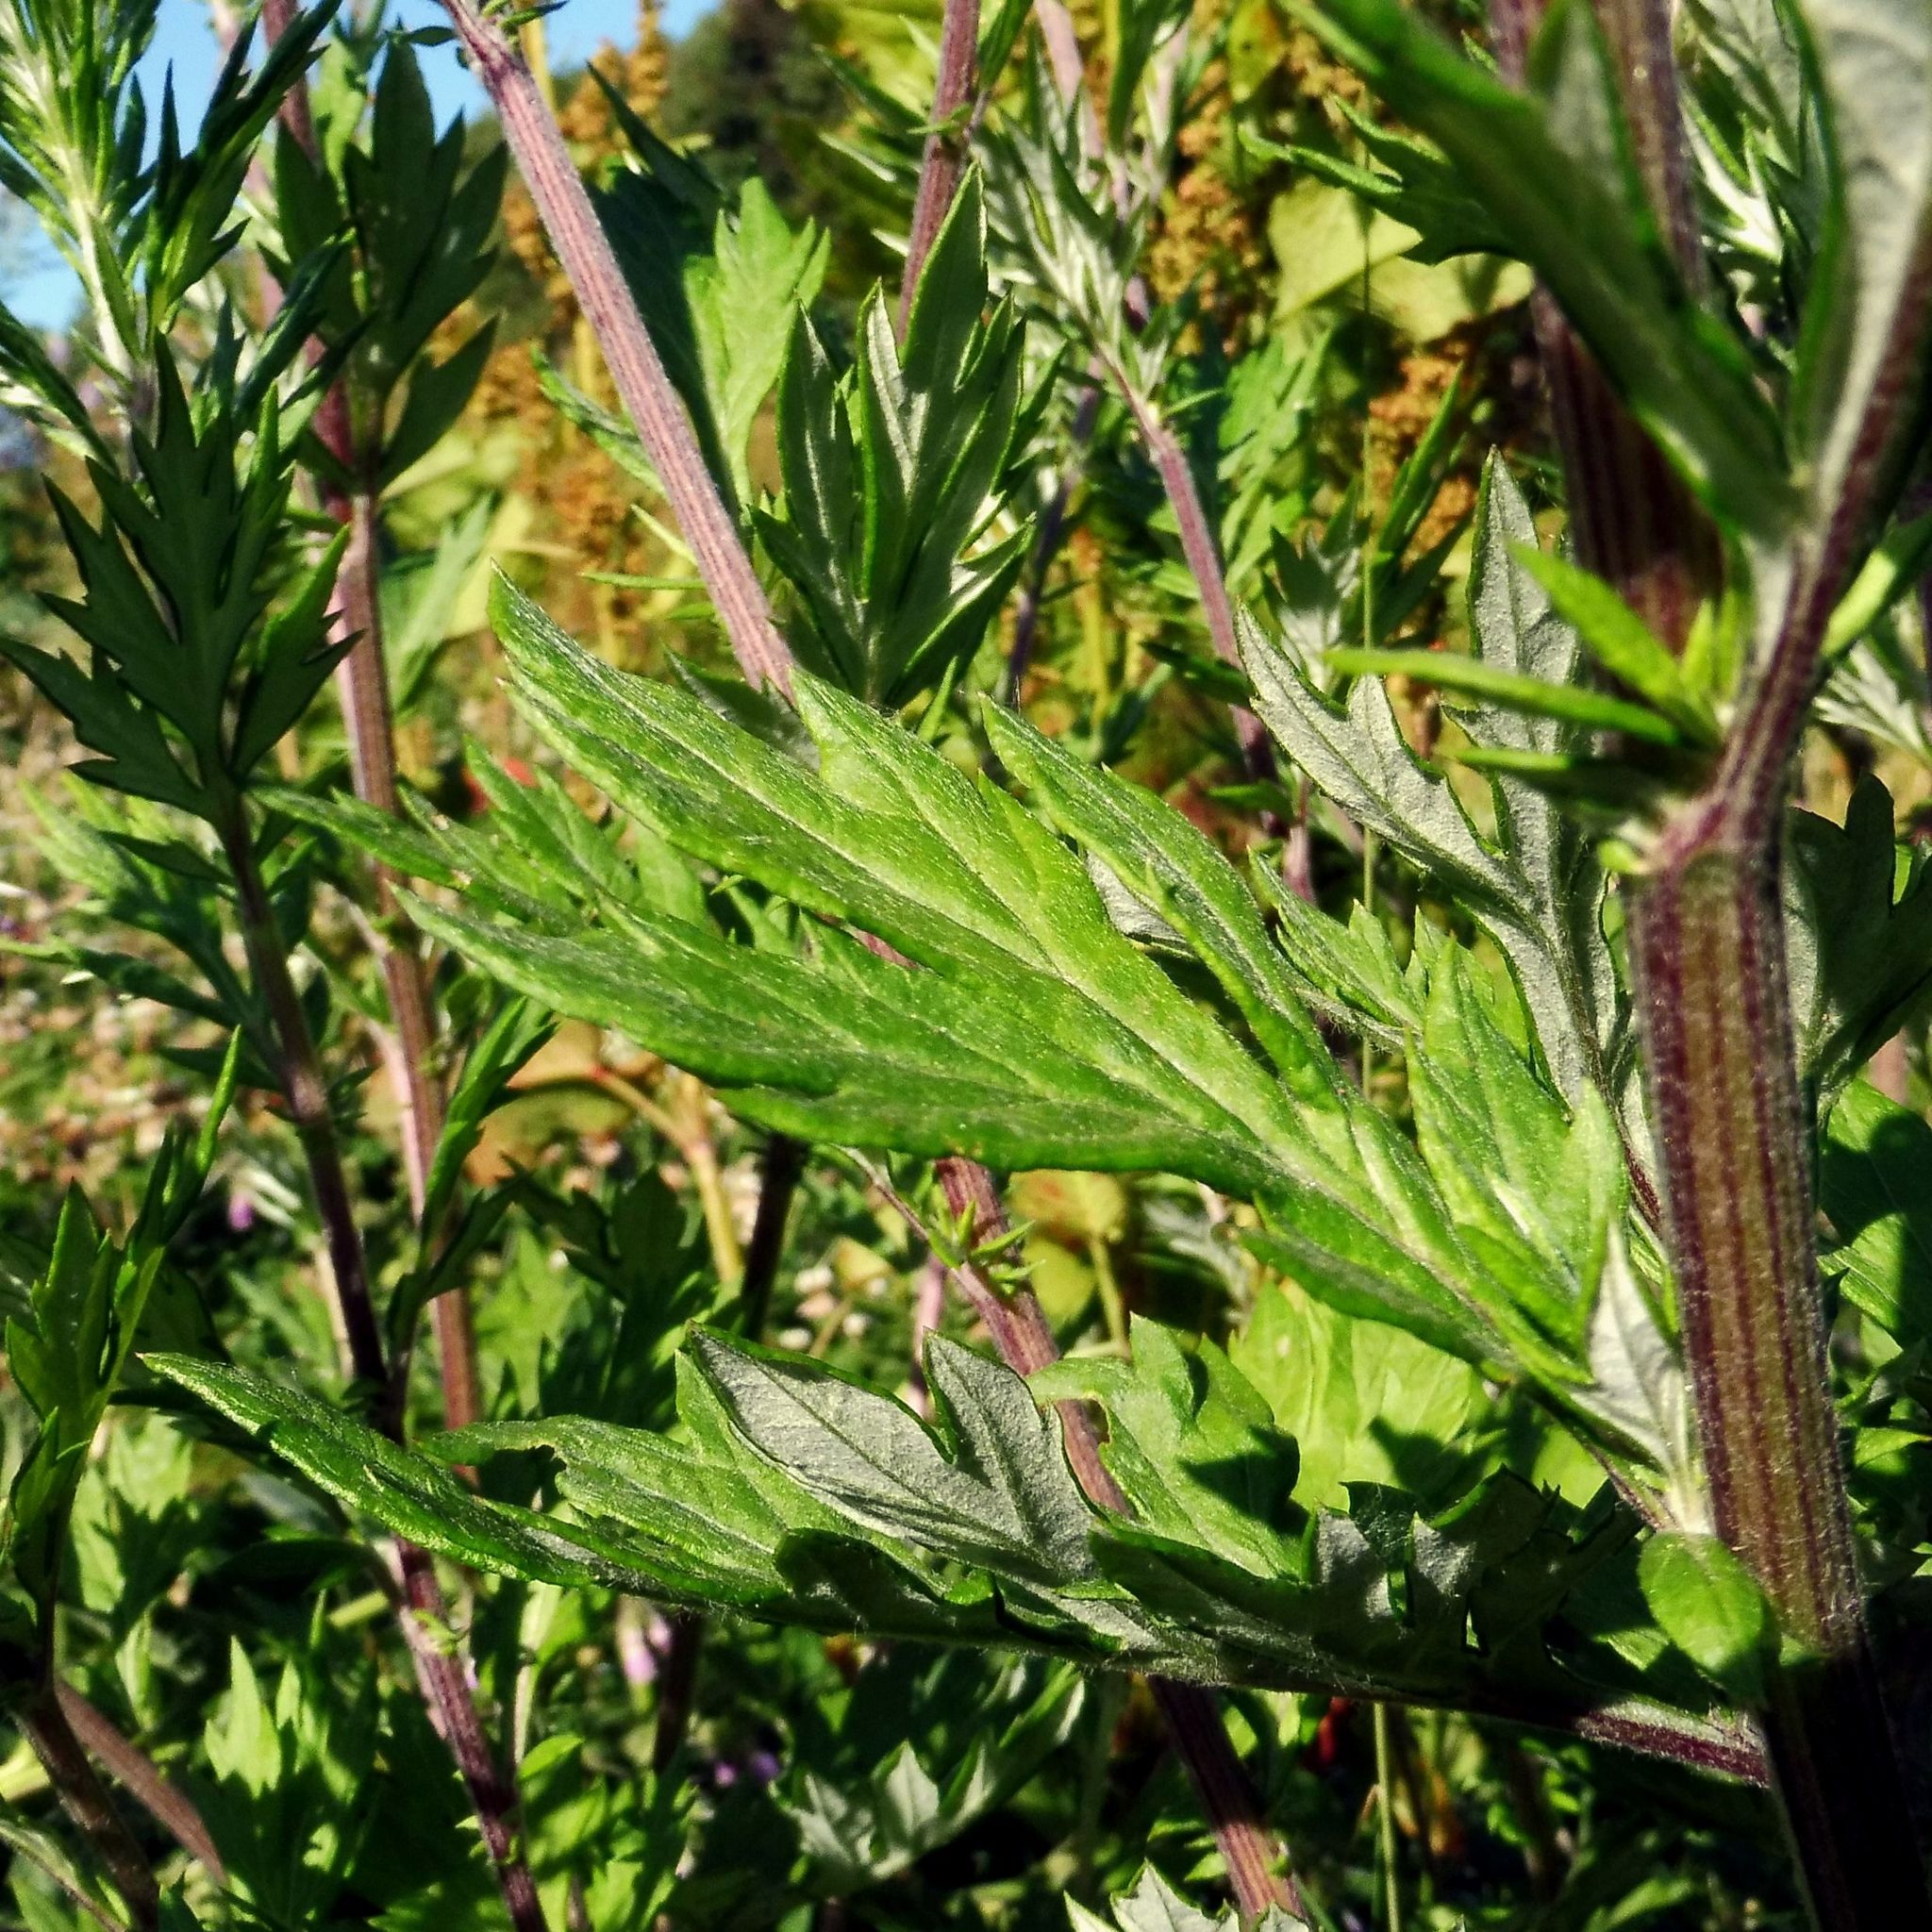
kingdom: Plantae
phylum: Tracheophyta
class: Magnoliopsida
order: Asterales
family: Asteraceae
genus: Artemisia
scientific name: Artemisia vulgaris
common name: Mugwort
